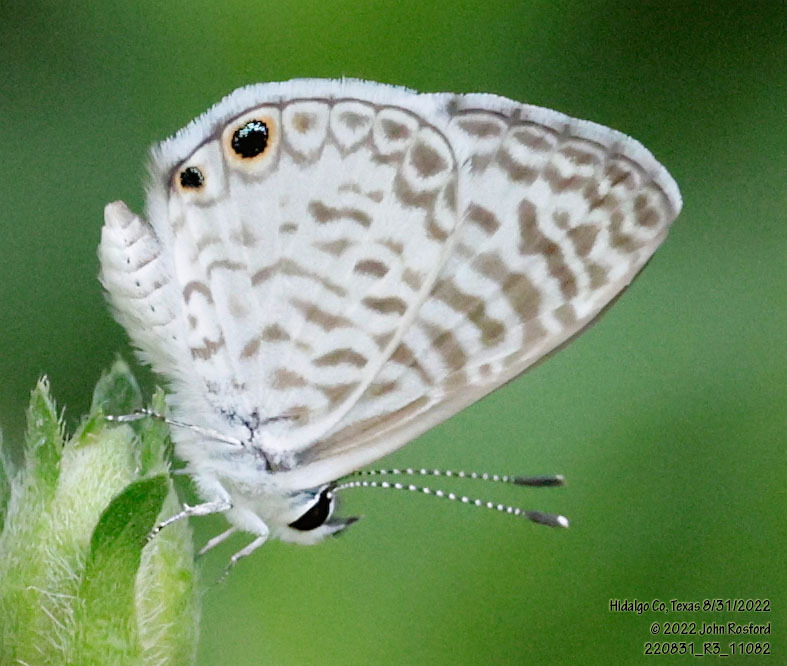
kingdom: Animalia
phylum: Arthropoda
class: Insecta
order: Lepidoptera
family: Lycaenidae
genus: Leptotes
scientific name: Leptotes cassius
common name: Cassius blue
